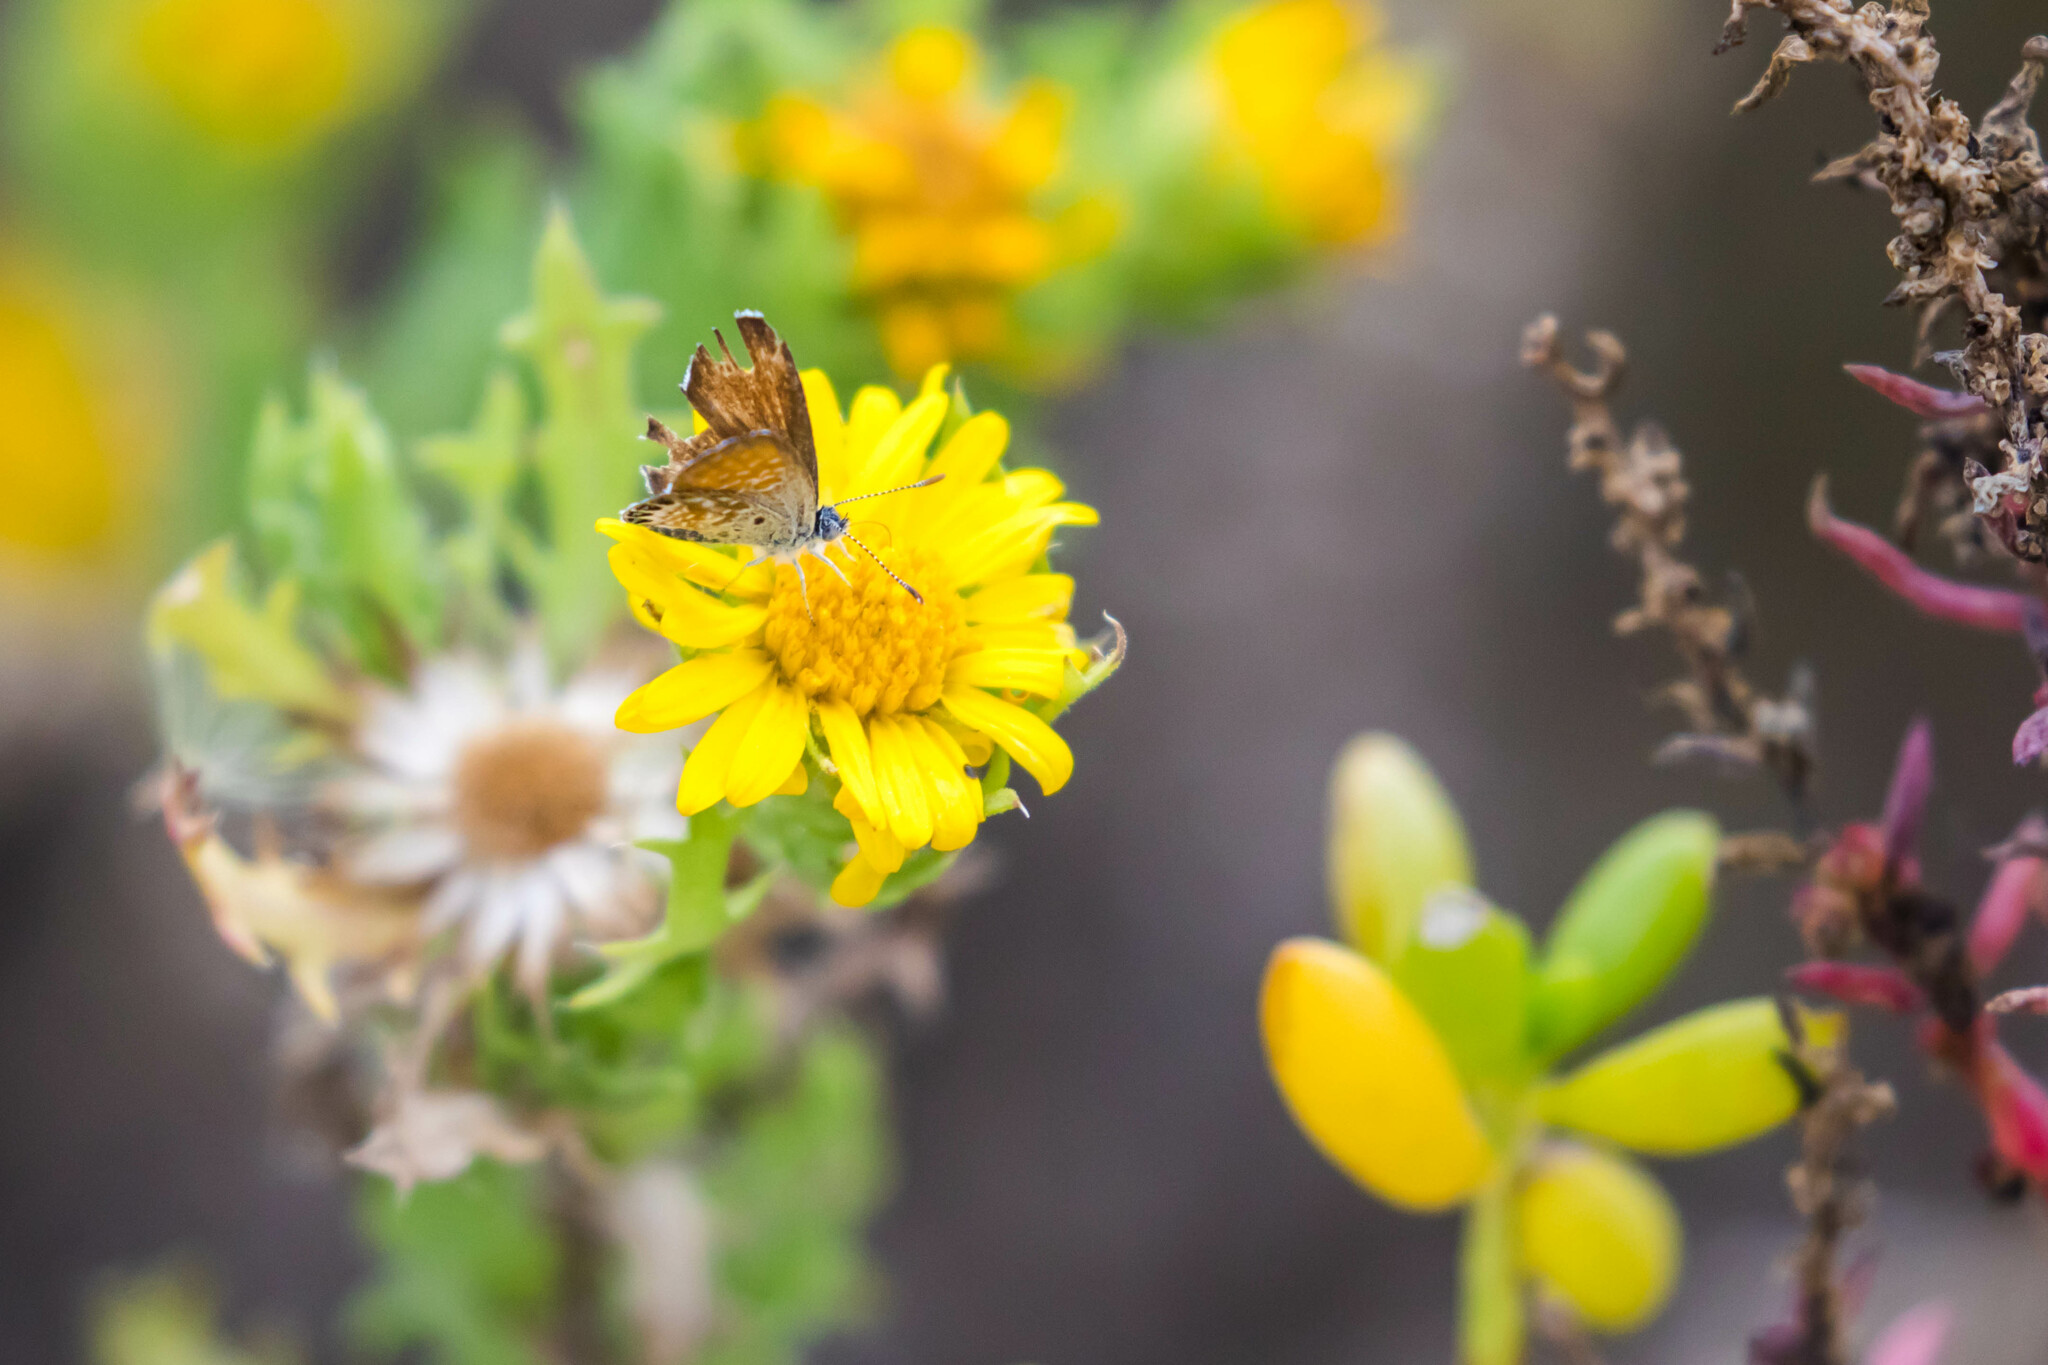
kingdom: Animalia
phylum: Arthropoda
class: Insecta
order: Lepidoptera
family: Lycaenidae
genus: Brephidium
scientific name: Brephidium exilis
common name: Pygmy blue
